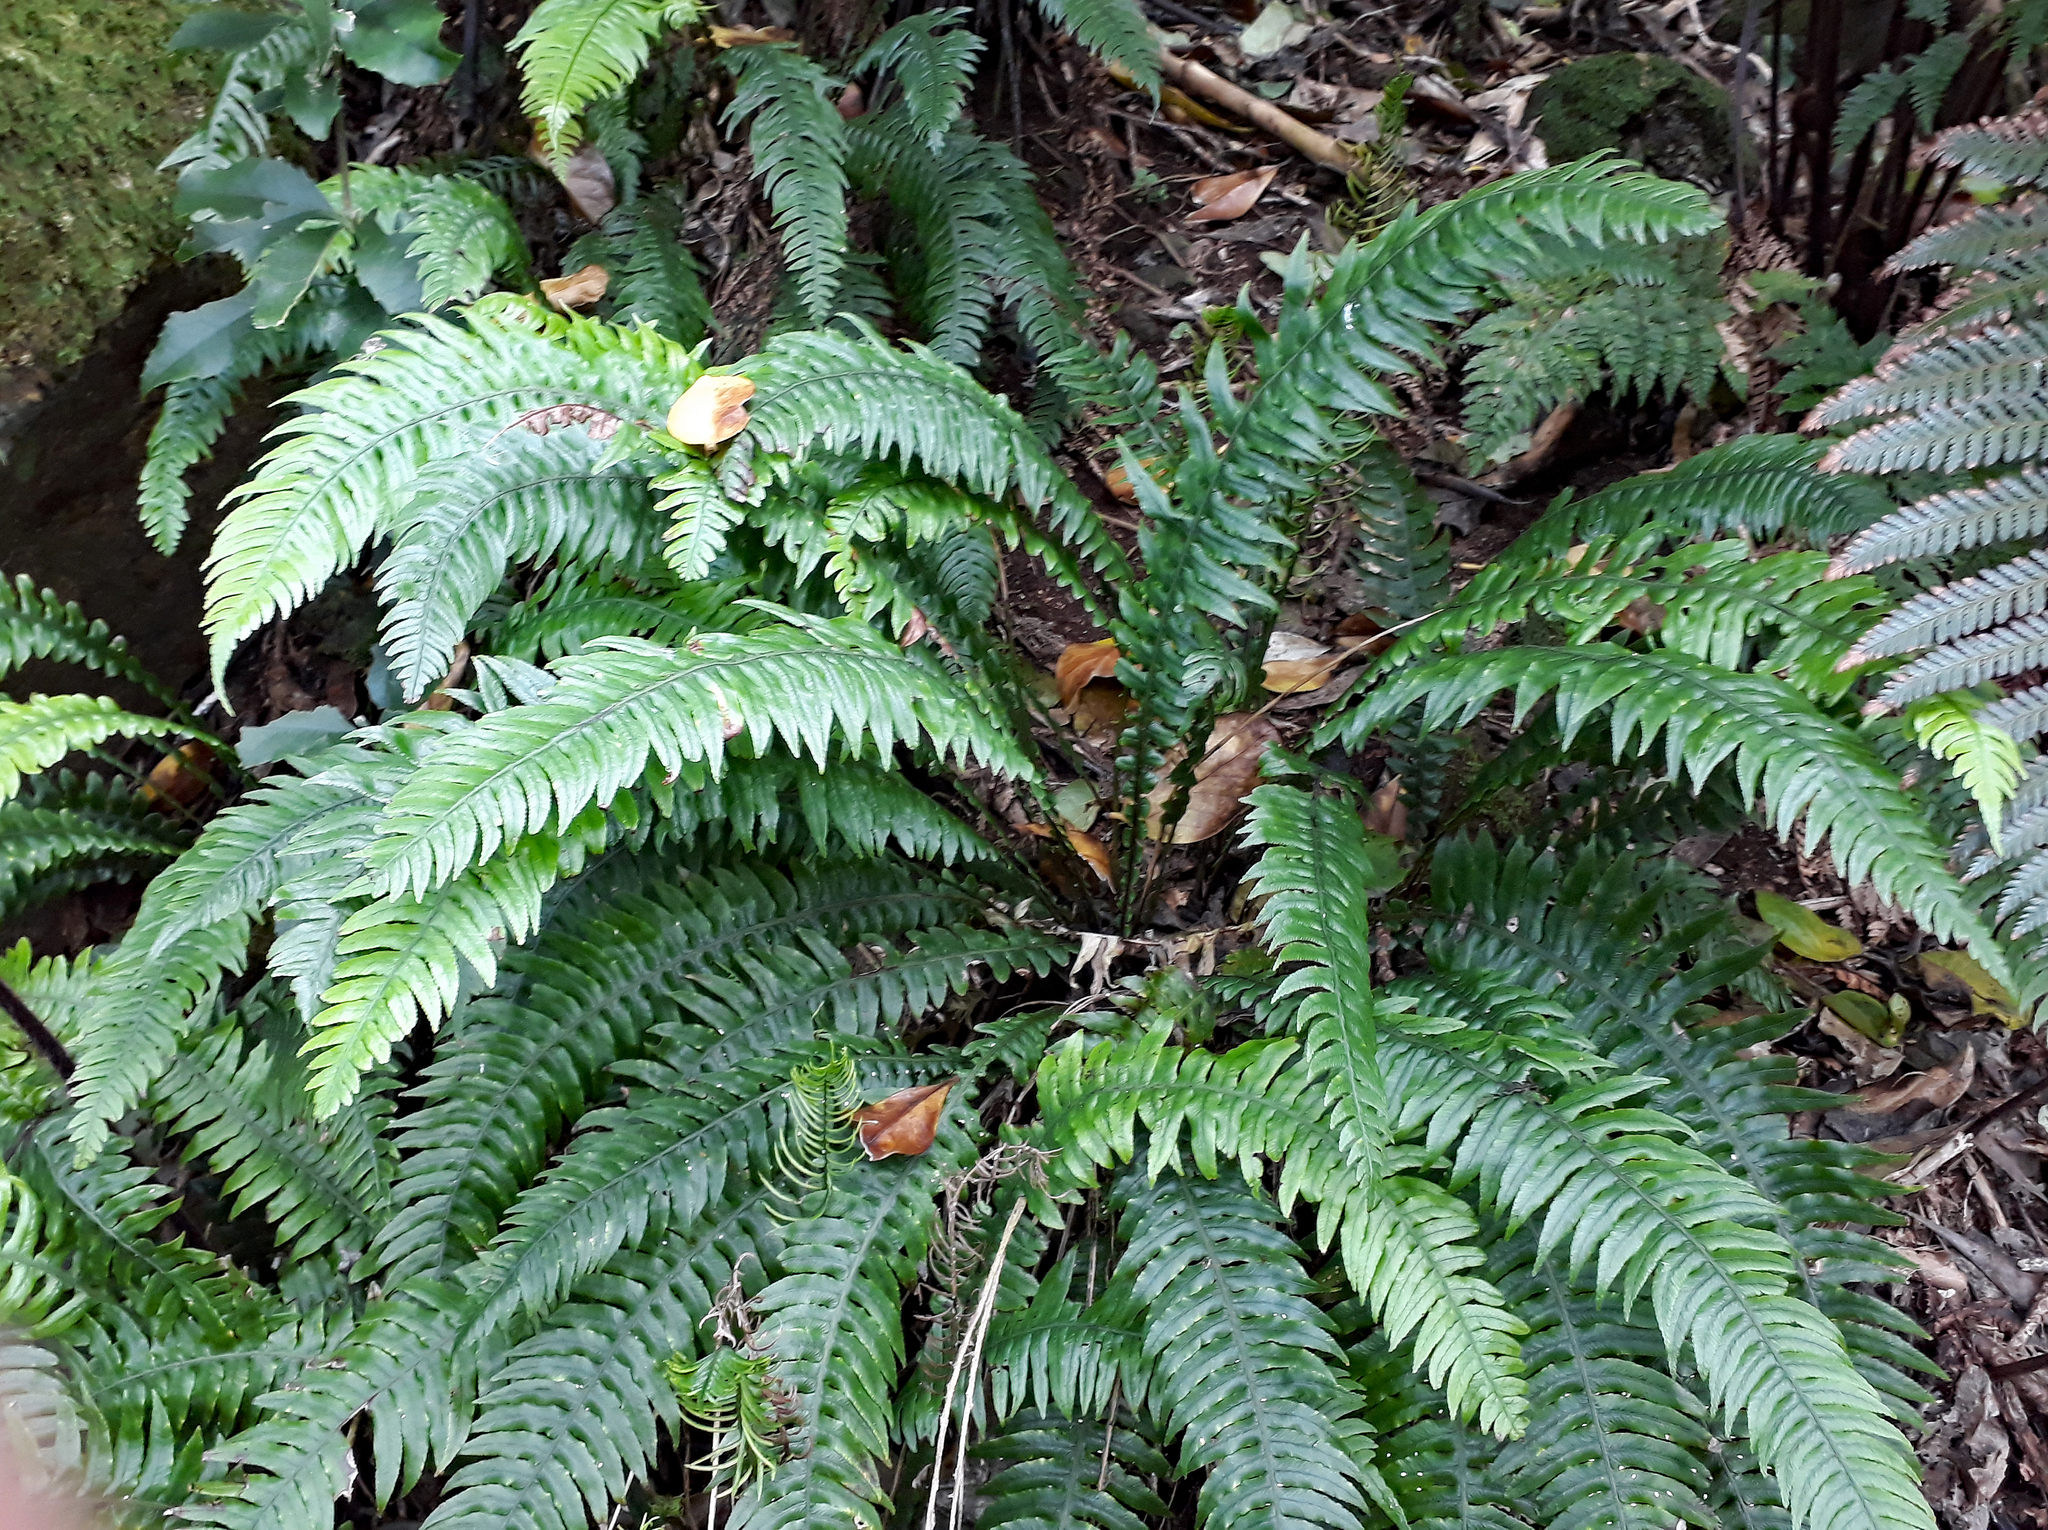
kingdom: Plantae
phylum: Tracheophyta
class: Polypodiopsida
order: Polypodiales
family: Blechnaceae
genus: Austroblechnum
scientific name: Austroblechnum lanceolatum
